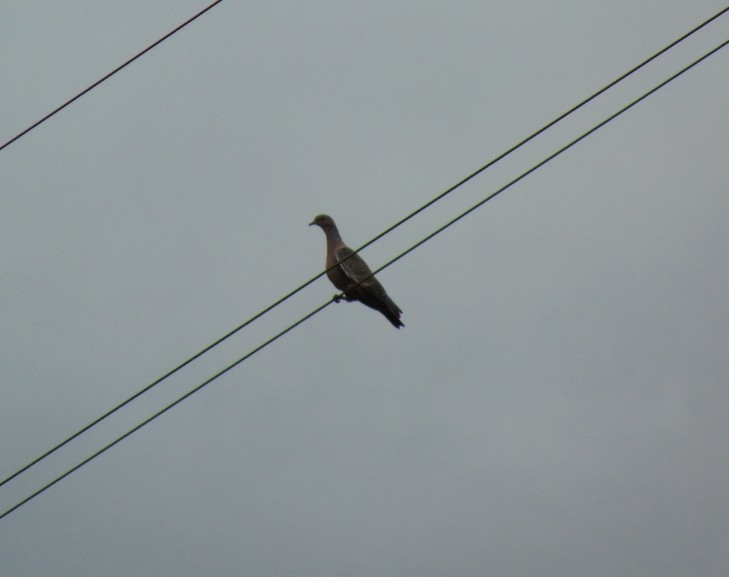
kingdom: Animalia
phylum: Chordata
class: Aves
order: Columbiformes
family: Columbidae
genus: Patagioenas
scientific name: Patagioenas picazuro
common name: Picazuro pigeon
